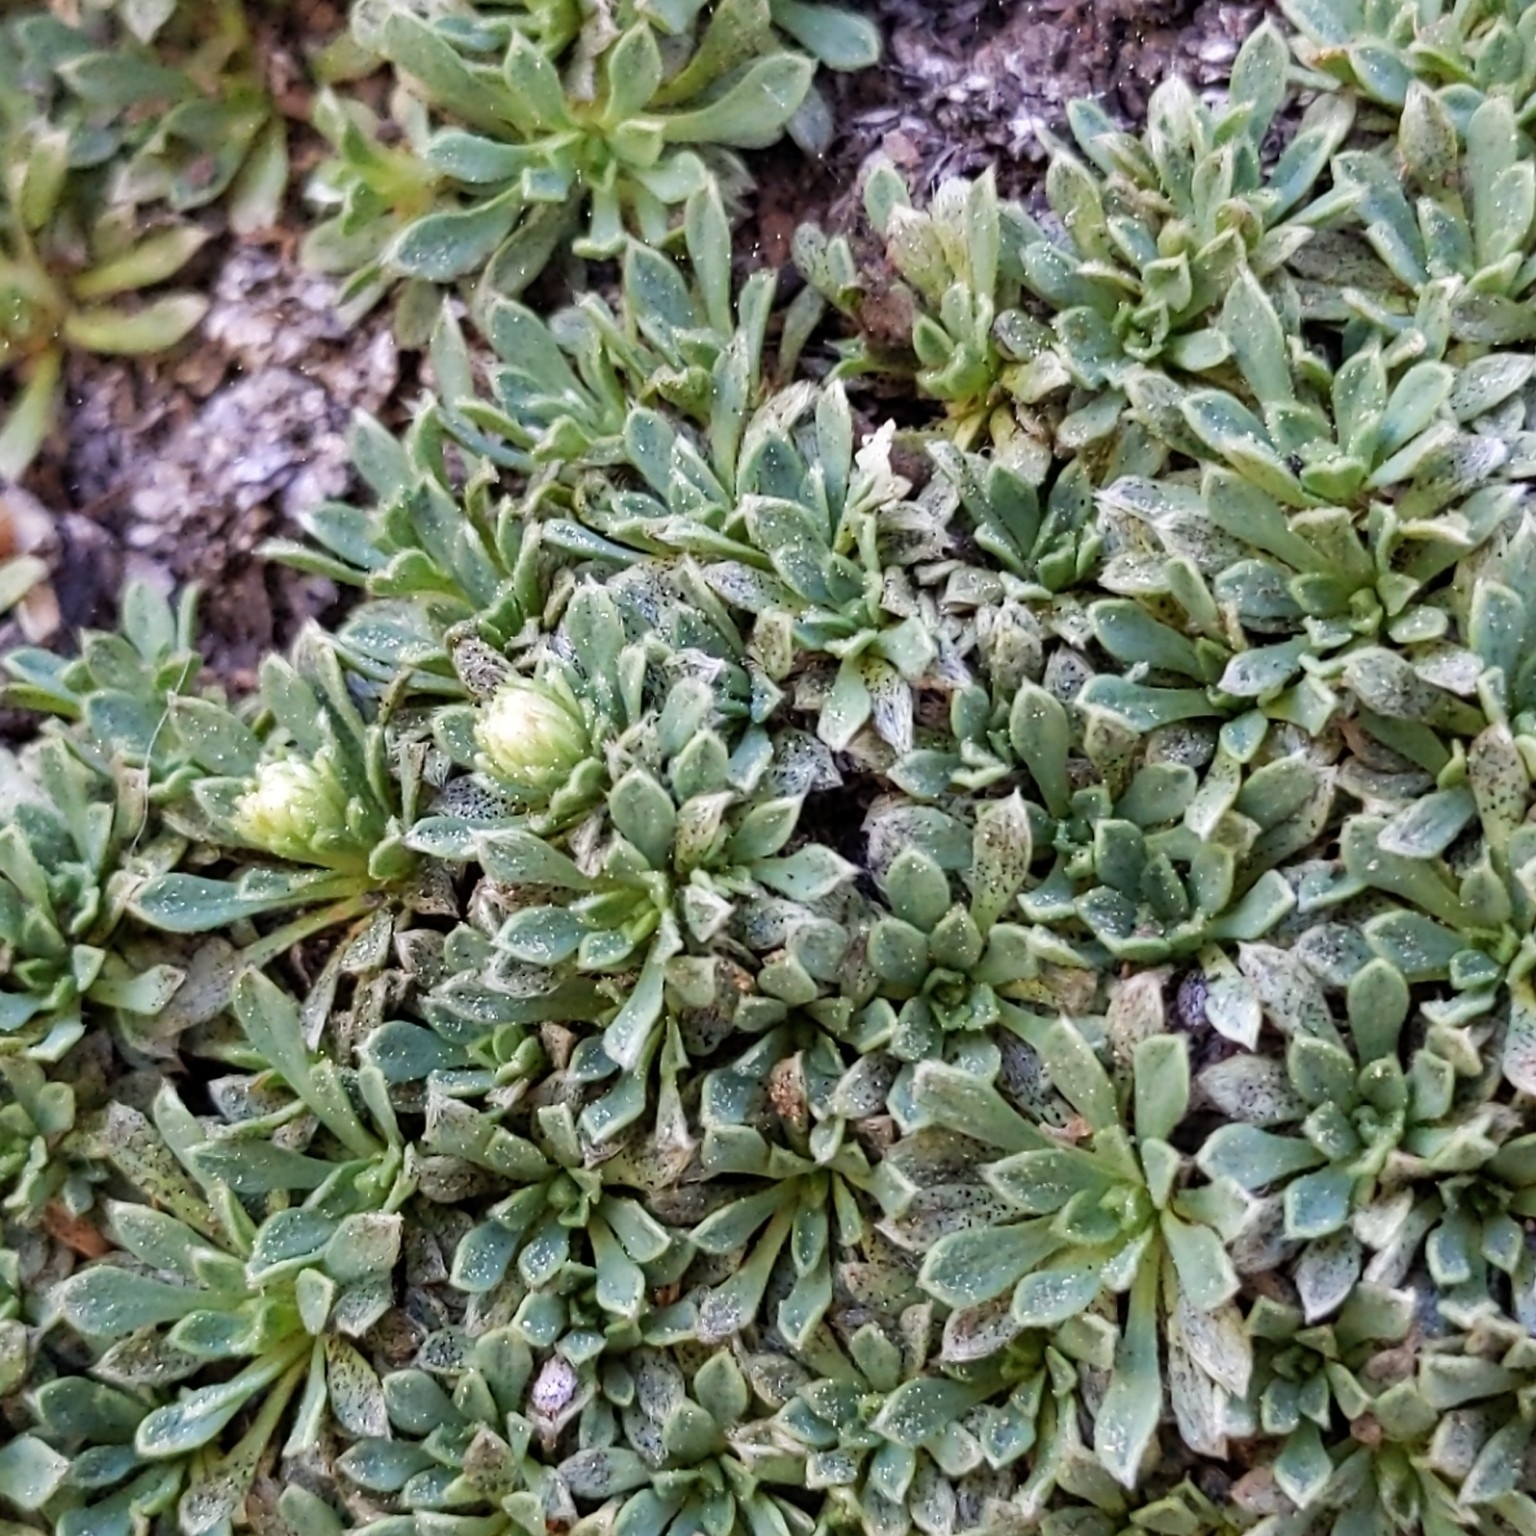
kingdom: Plantae
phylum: Tracheophyta
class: Magnoliopsida
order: Rosales
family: Rosaceae
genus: Petrophytum
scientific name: Petrophytum caespitosum
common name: Mat rockspirea
